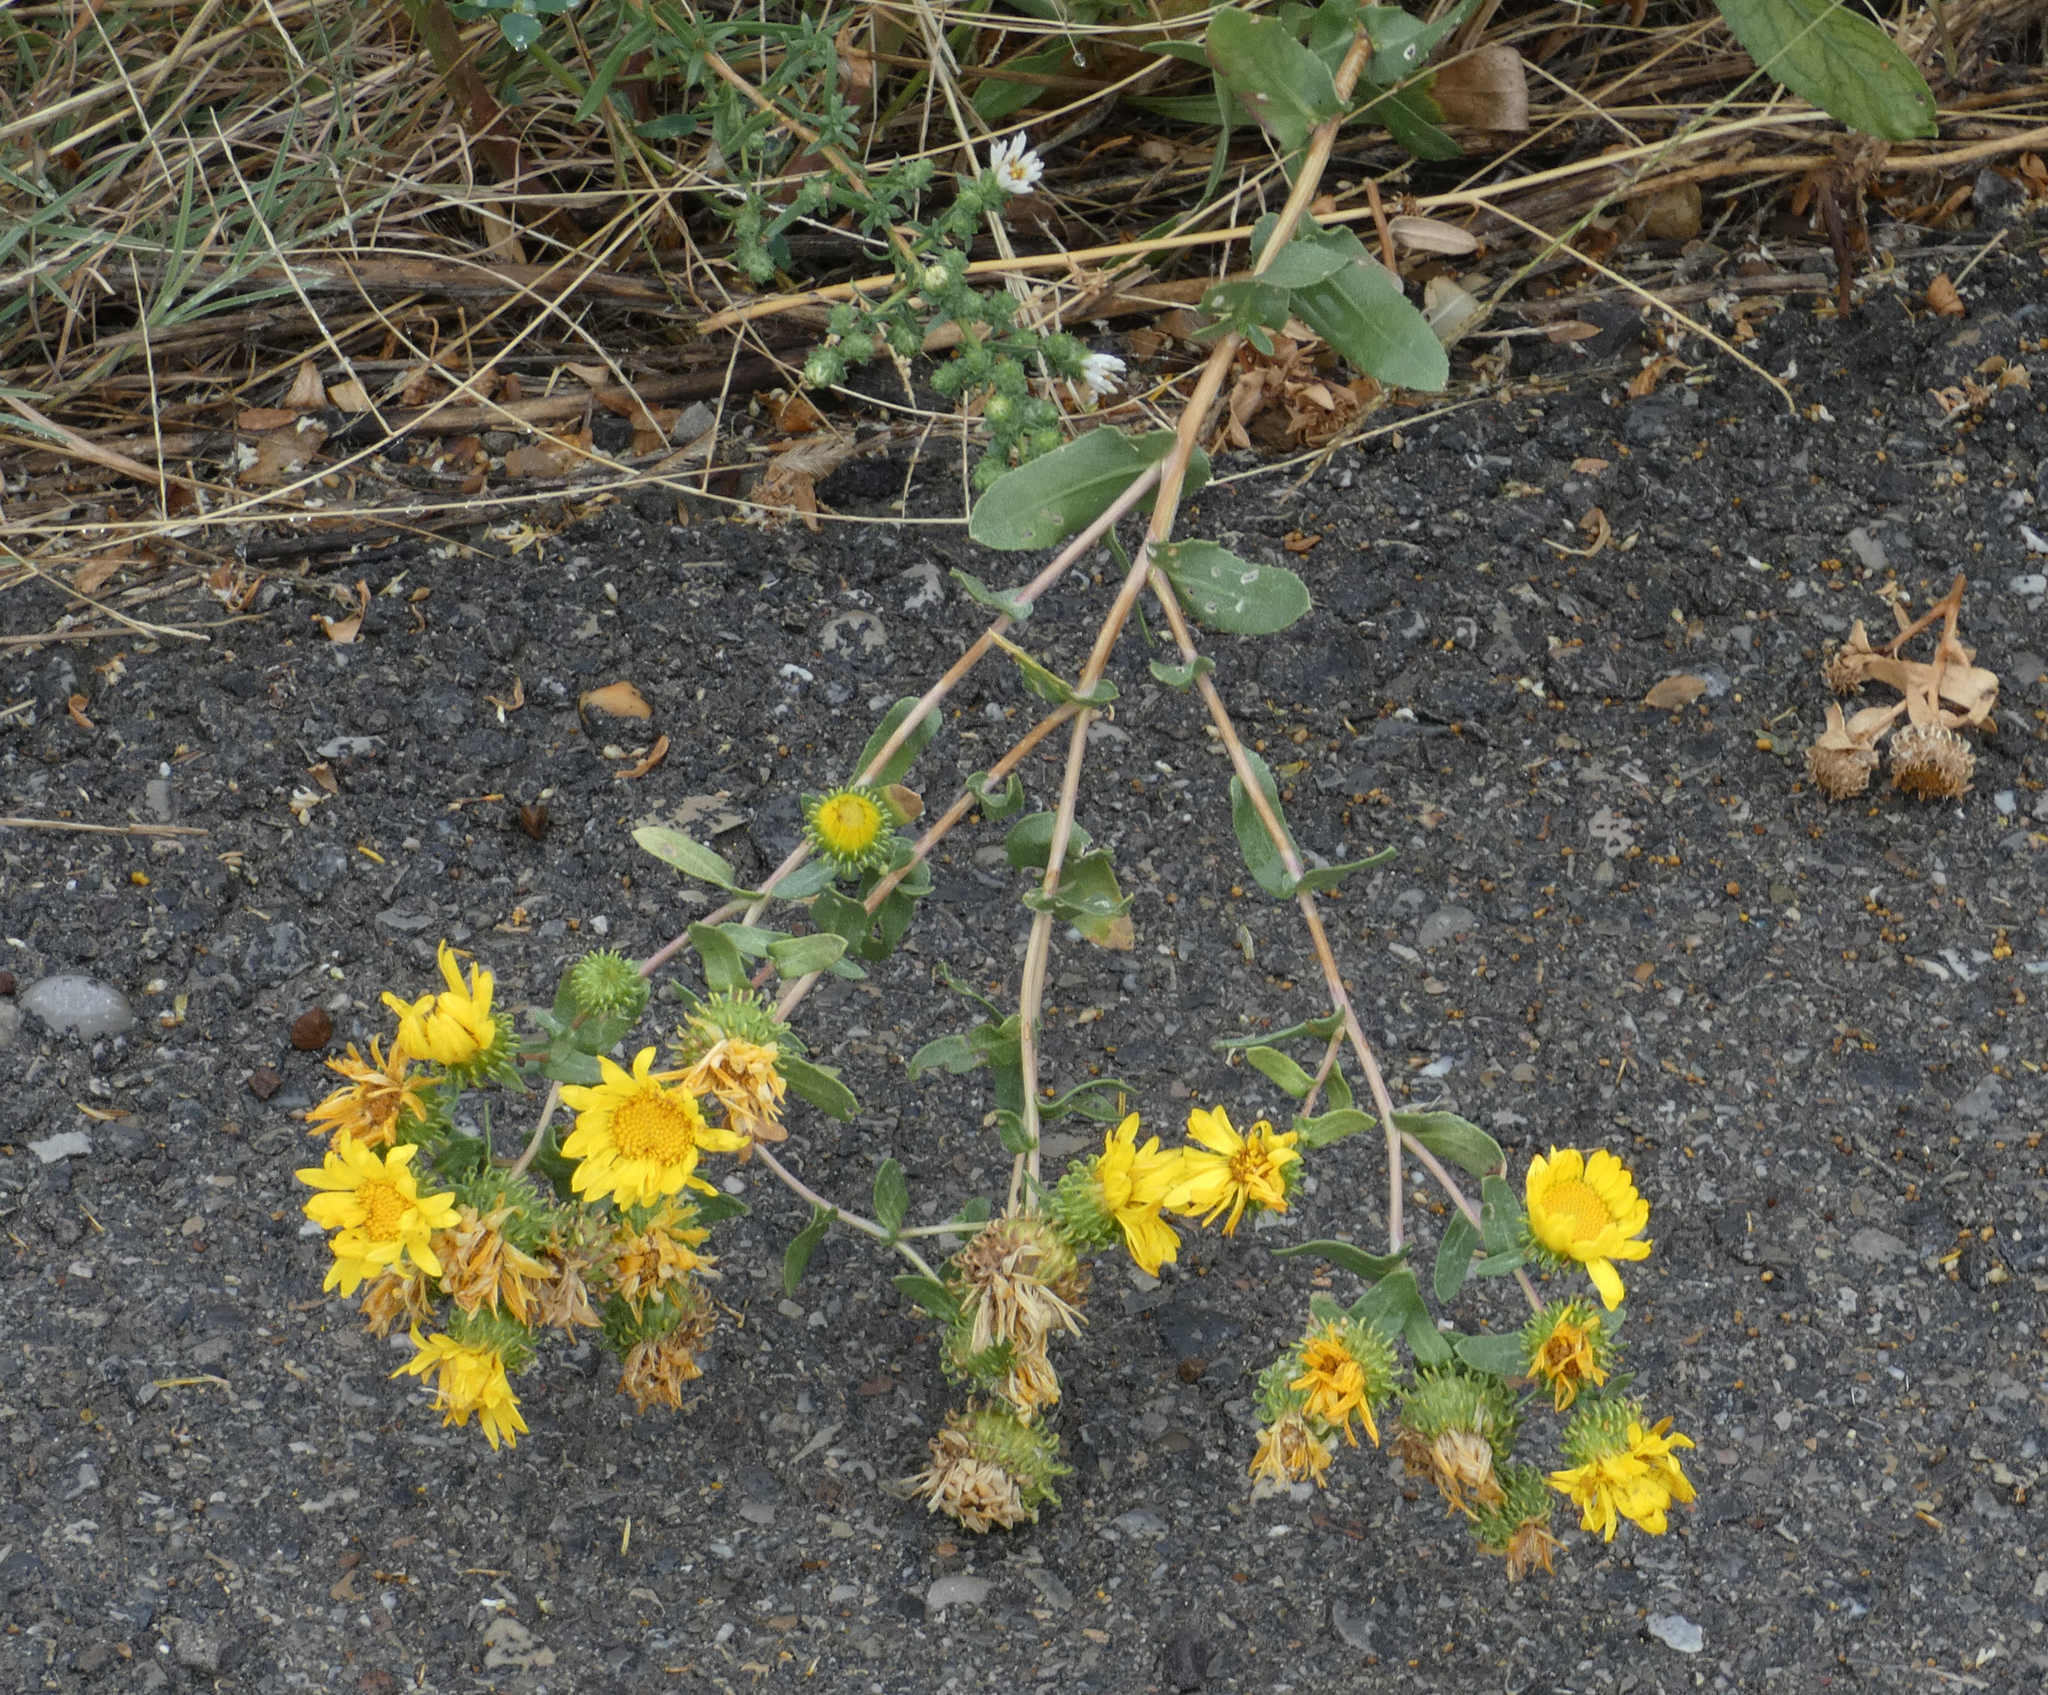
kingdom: Plantae
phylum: Tracheophyta
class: Magnoliopsida
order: Asterales
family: Asteraceae
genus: Grindelia
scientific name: Grindelia squarrosa
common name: Curly-cup gumweed
